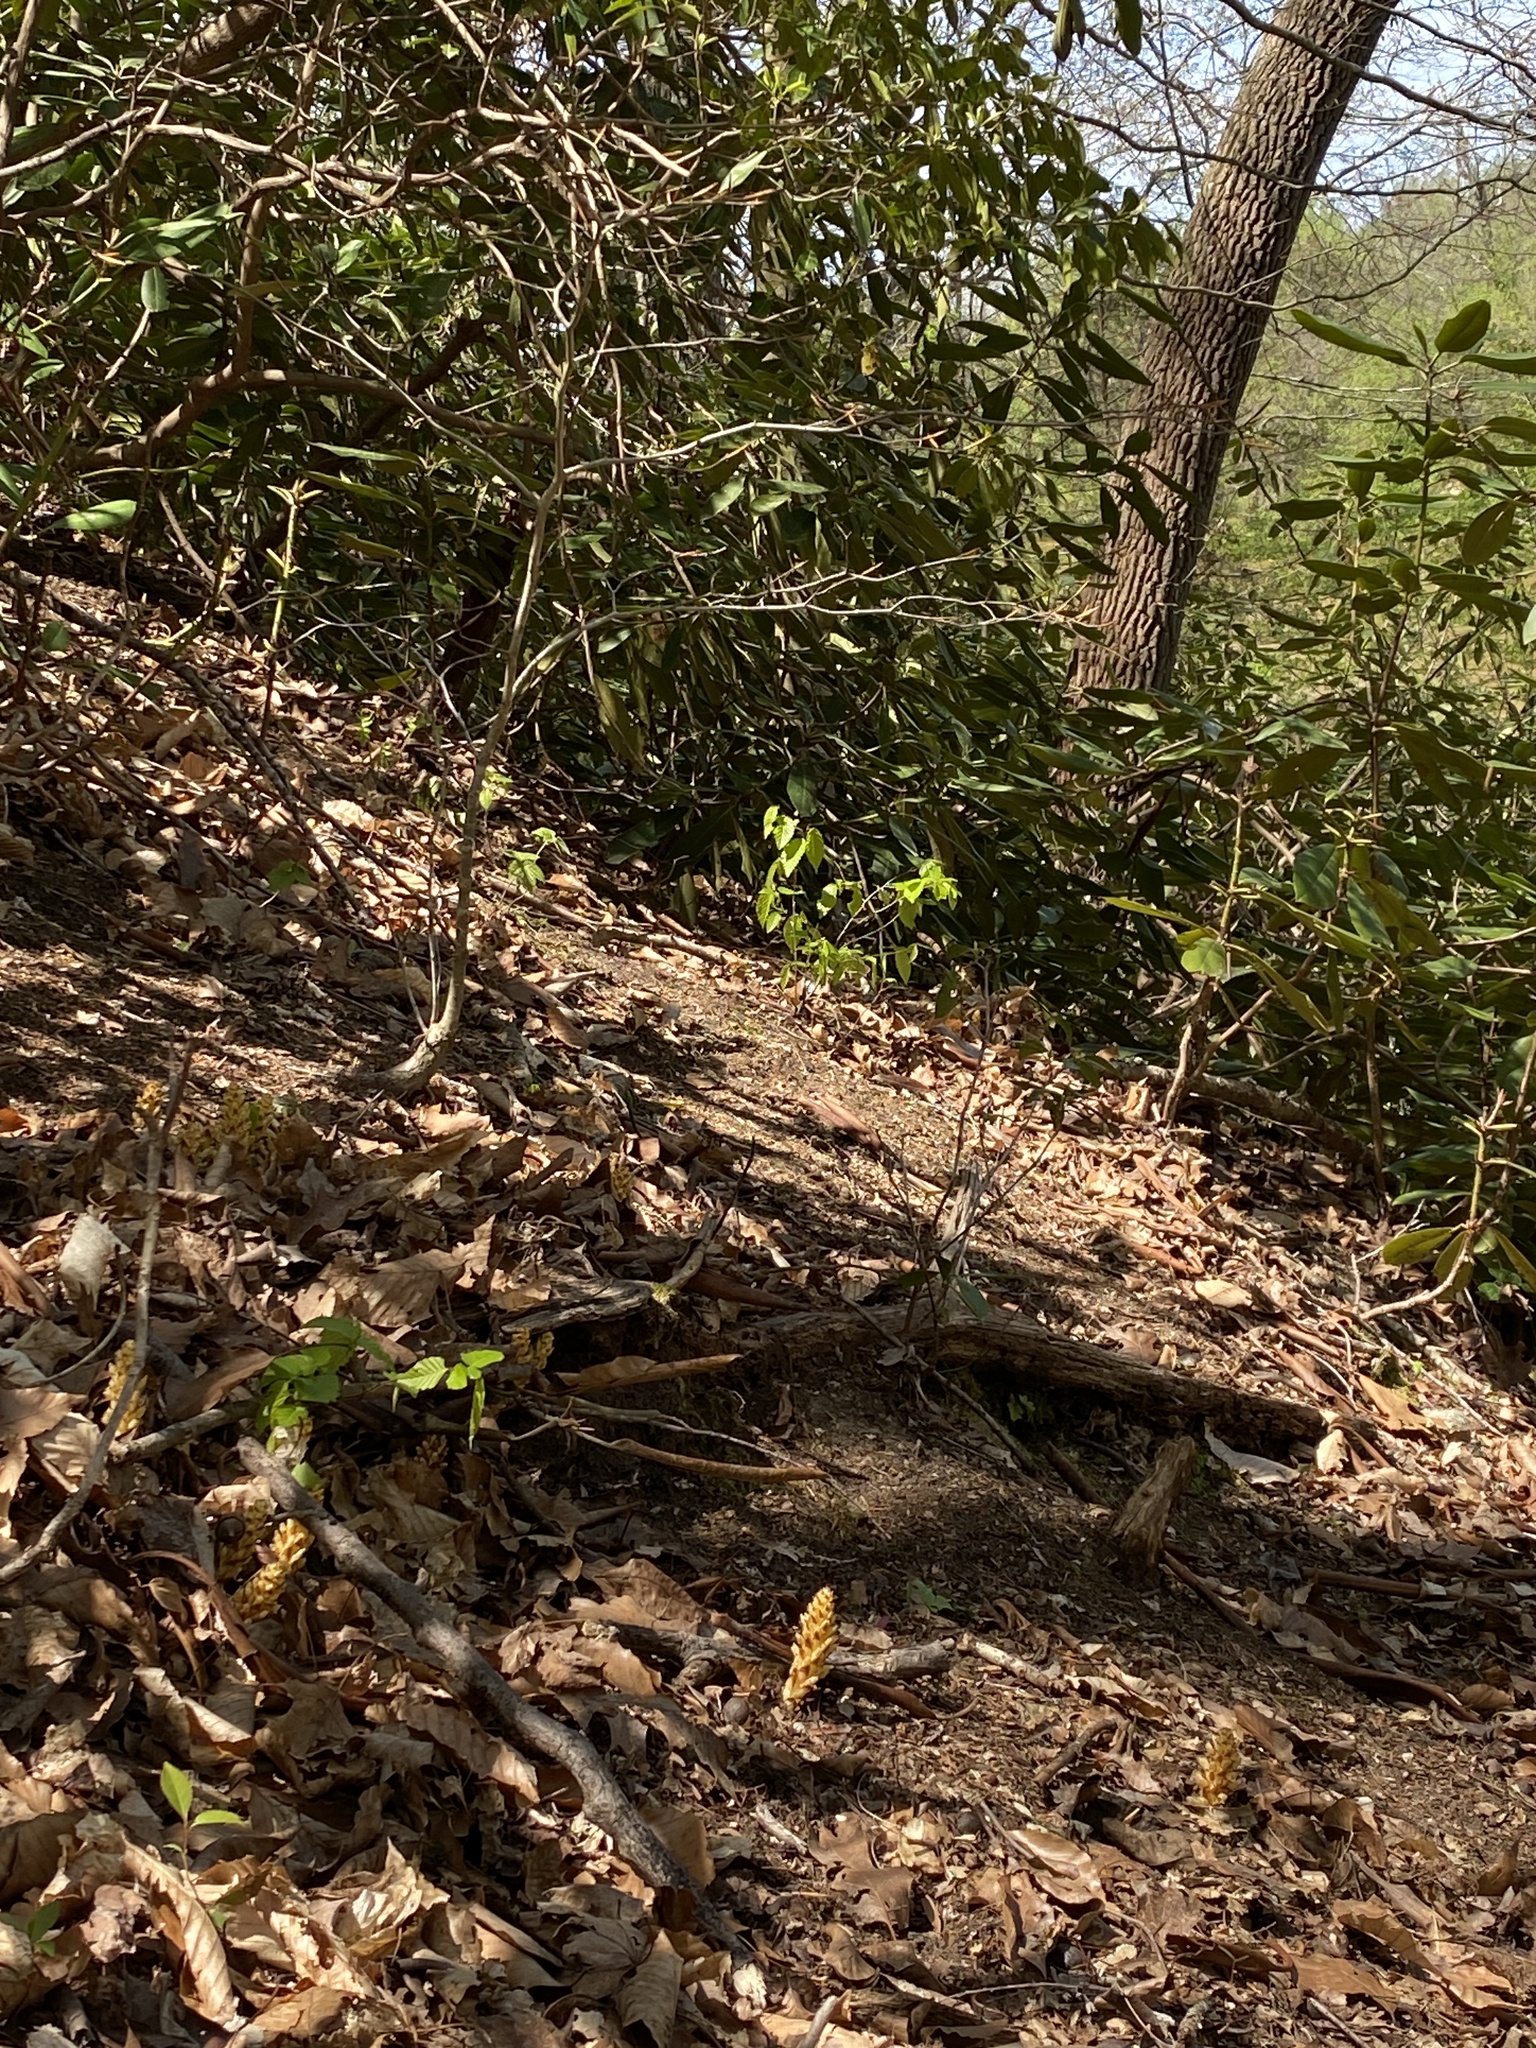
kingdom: Plantae
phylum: Tracheophyta
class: Magnoliopsida
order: Lamiales
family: Orobanchaceae
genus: Conopholis
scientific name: Conopholis americana
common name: American cancer-root
